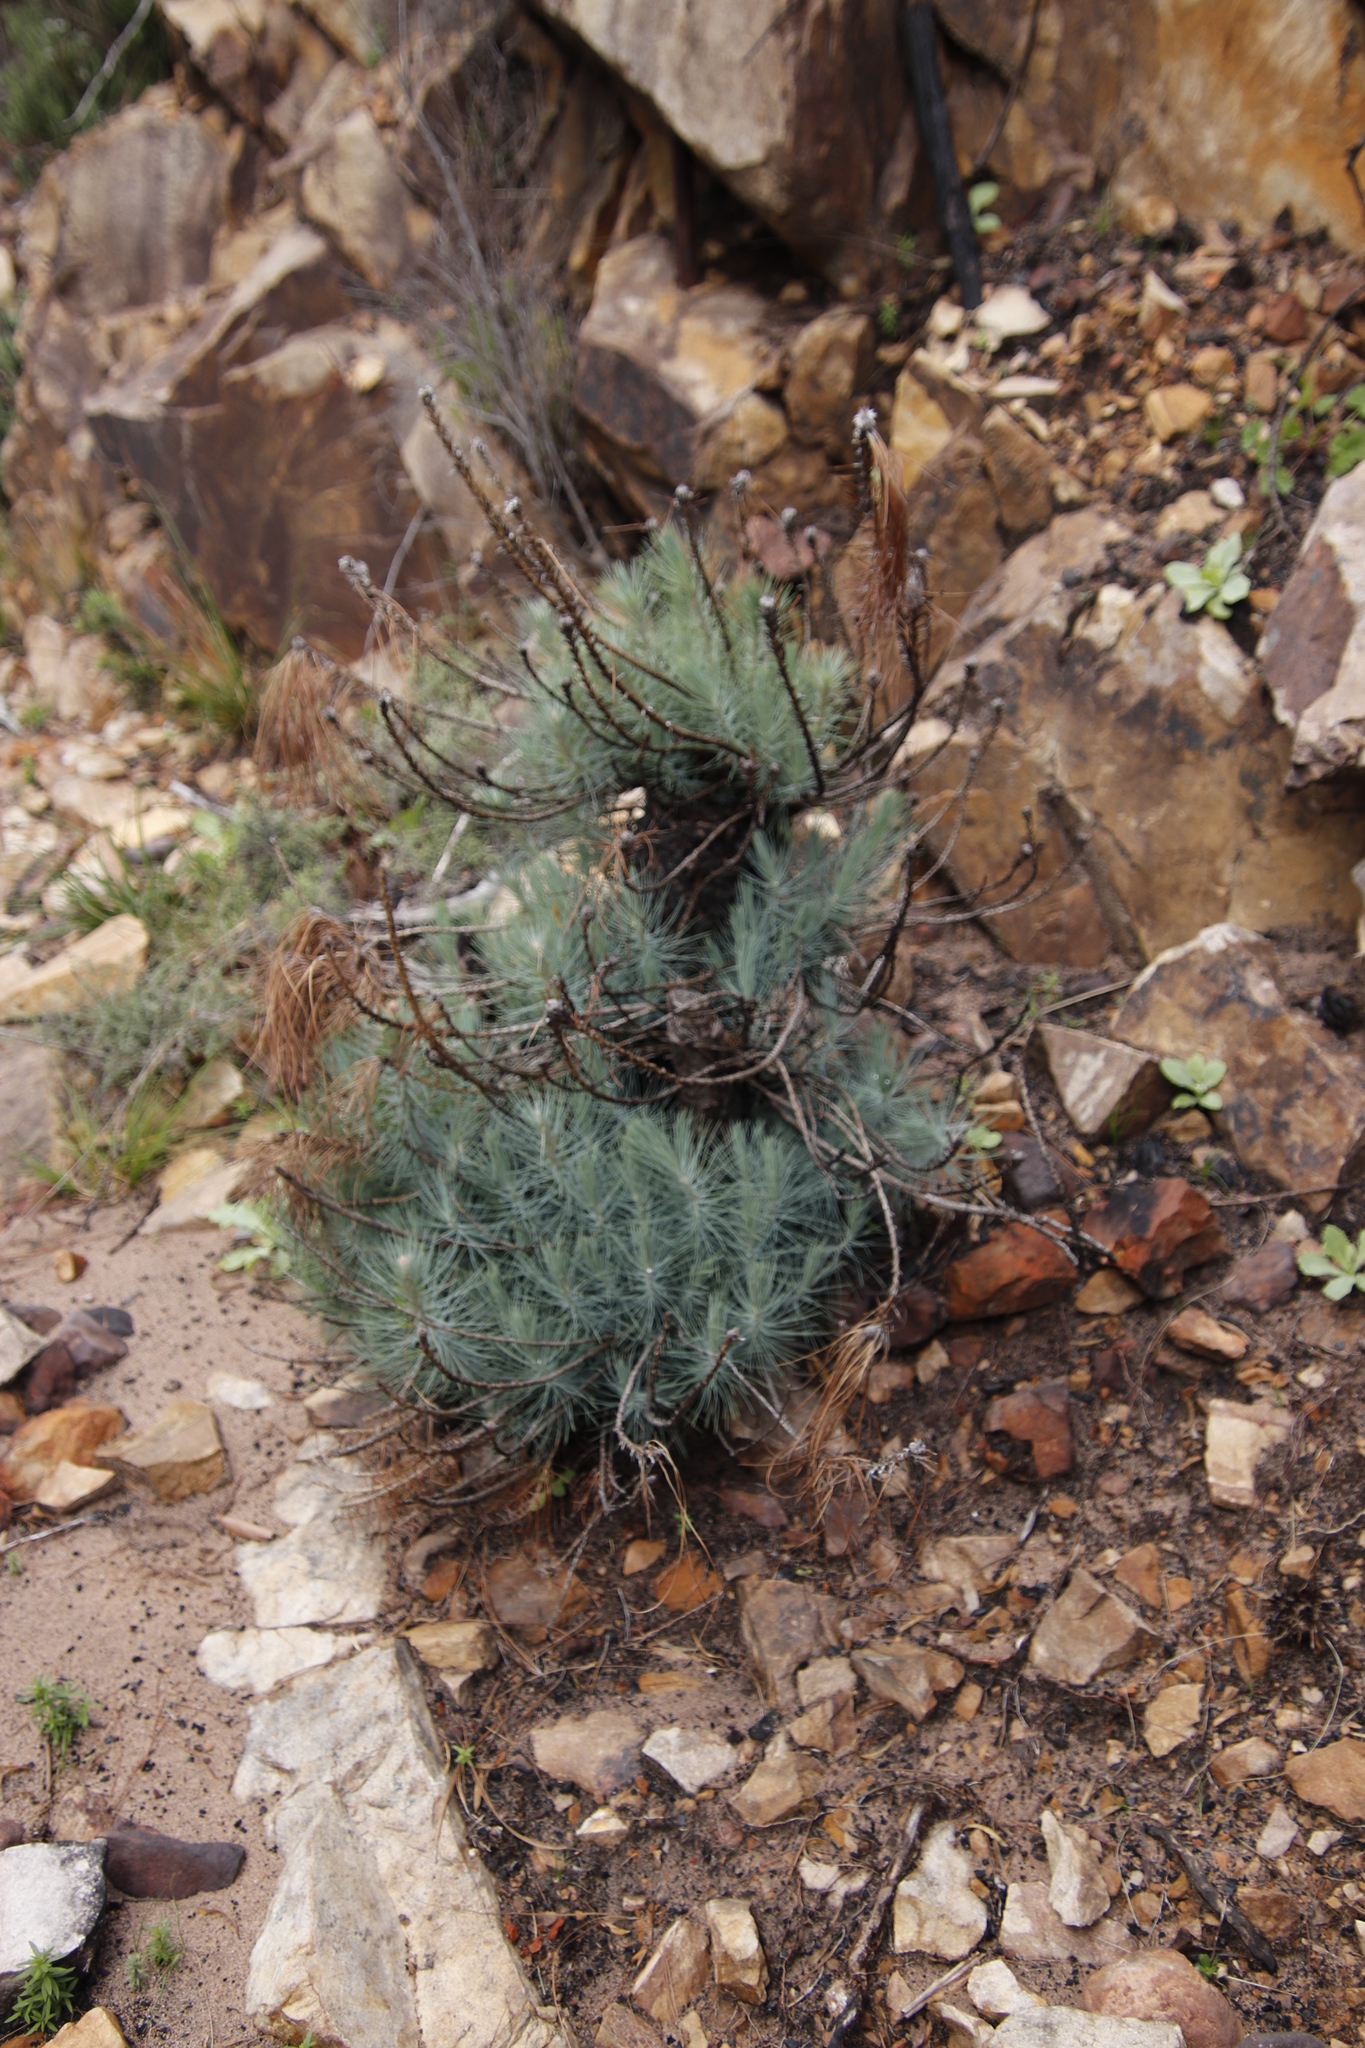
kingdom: Plantae
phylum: Tracheophyta
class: Pinopsida
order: Pinales
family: Pinaceae
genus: Pinus
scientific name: Pinus canariensis
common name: Canary islands pine
